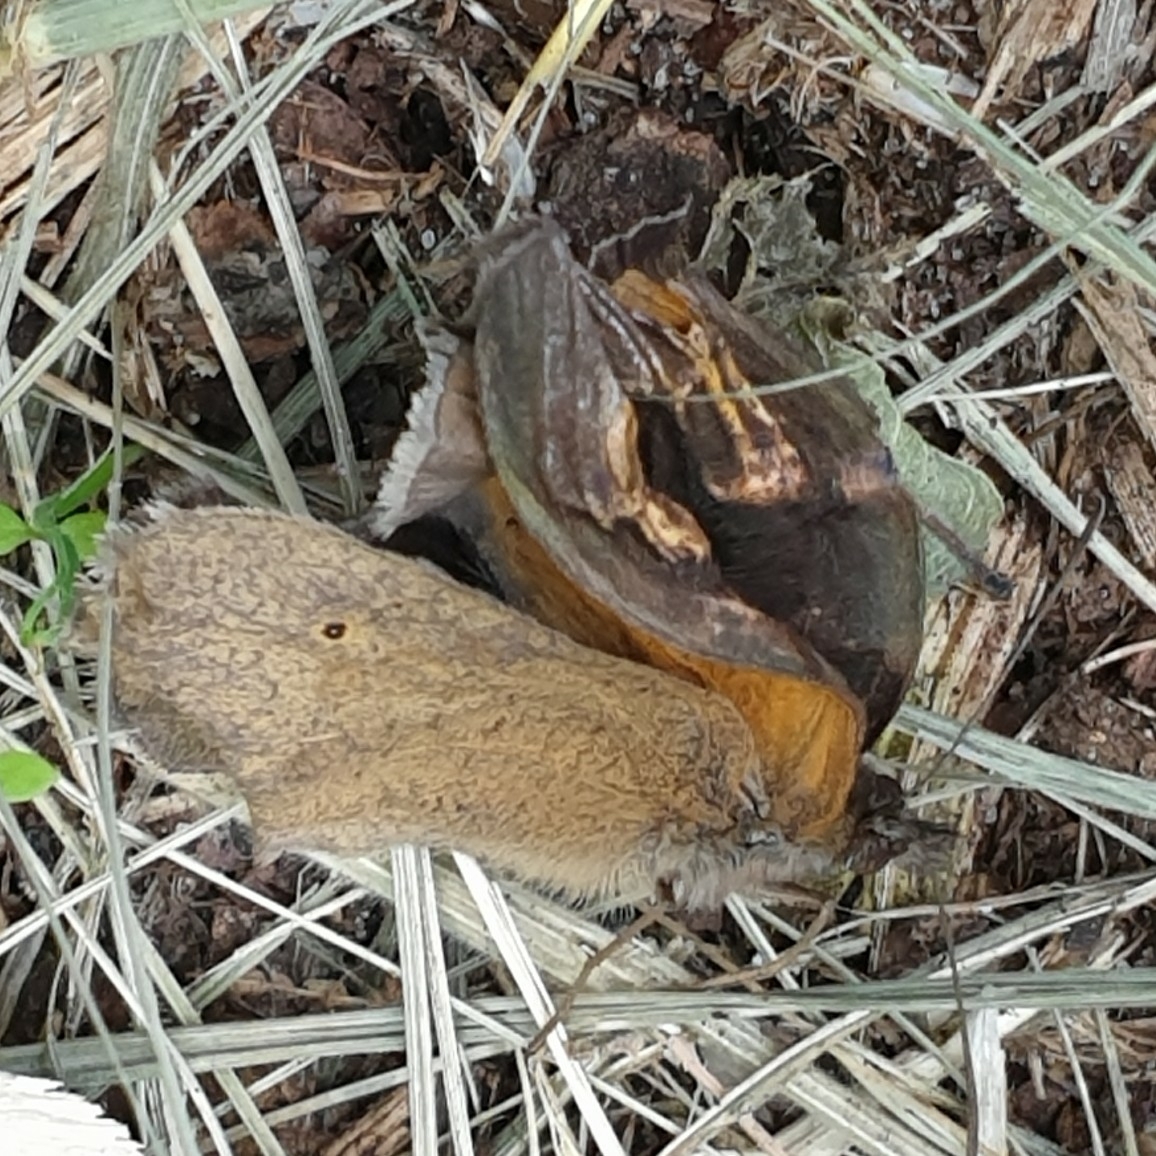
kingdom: Animalia
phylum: Arthropoda
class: Insecta
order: Lepidoptera
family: Nymphalidae
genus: Maniola
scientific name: Maniola jurtina
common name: Meadow brown
